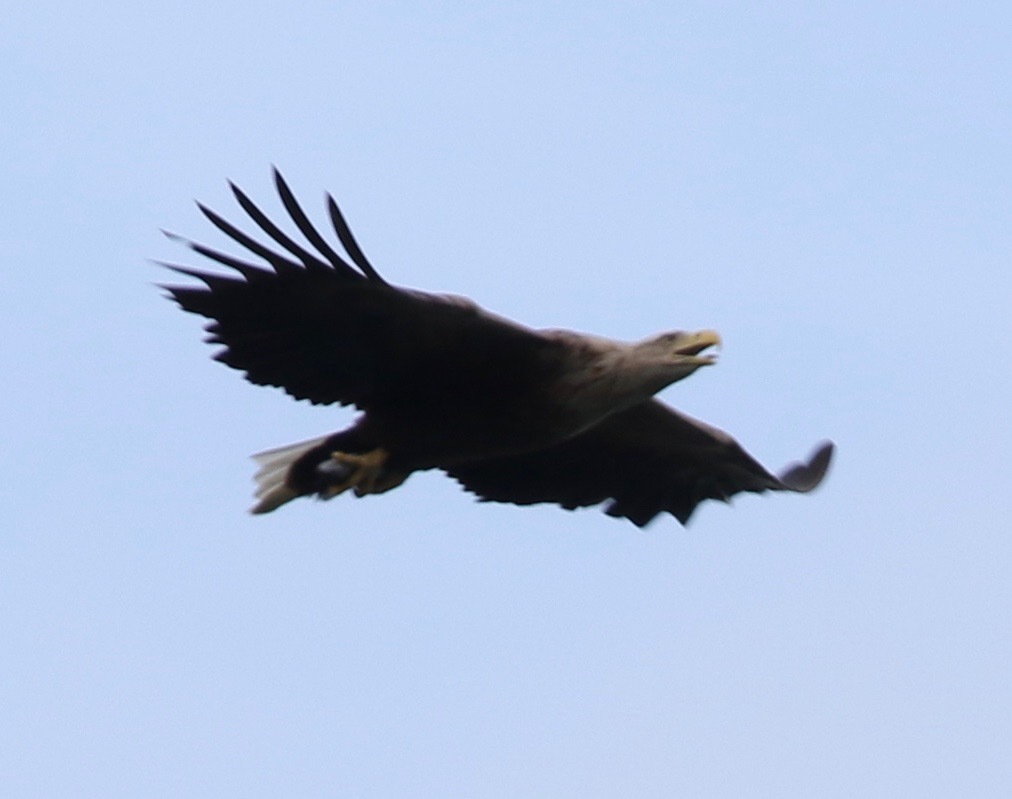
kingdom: Animalia
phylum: Chordata
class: Aves
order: Accipitriformes
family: Accipitridae
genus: Haliaeetus
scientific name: Haliaeetus albicilla
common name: White-tailed eagle
